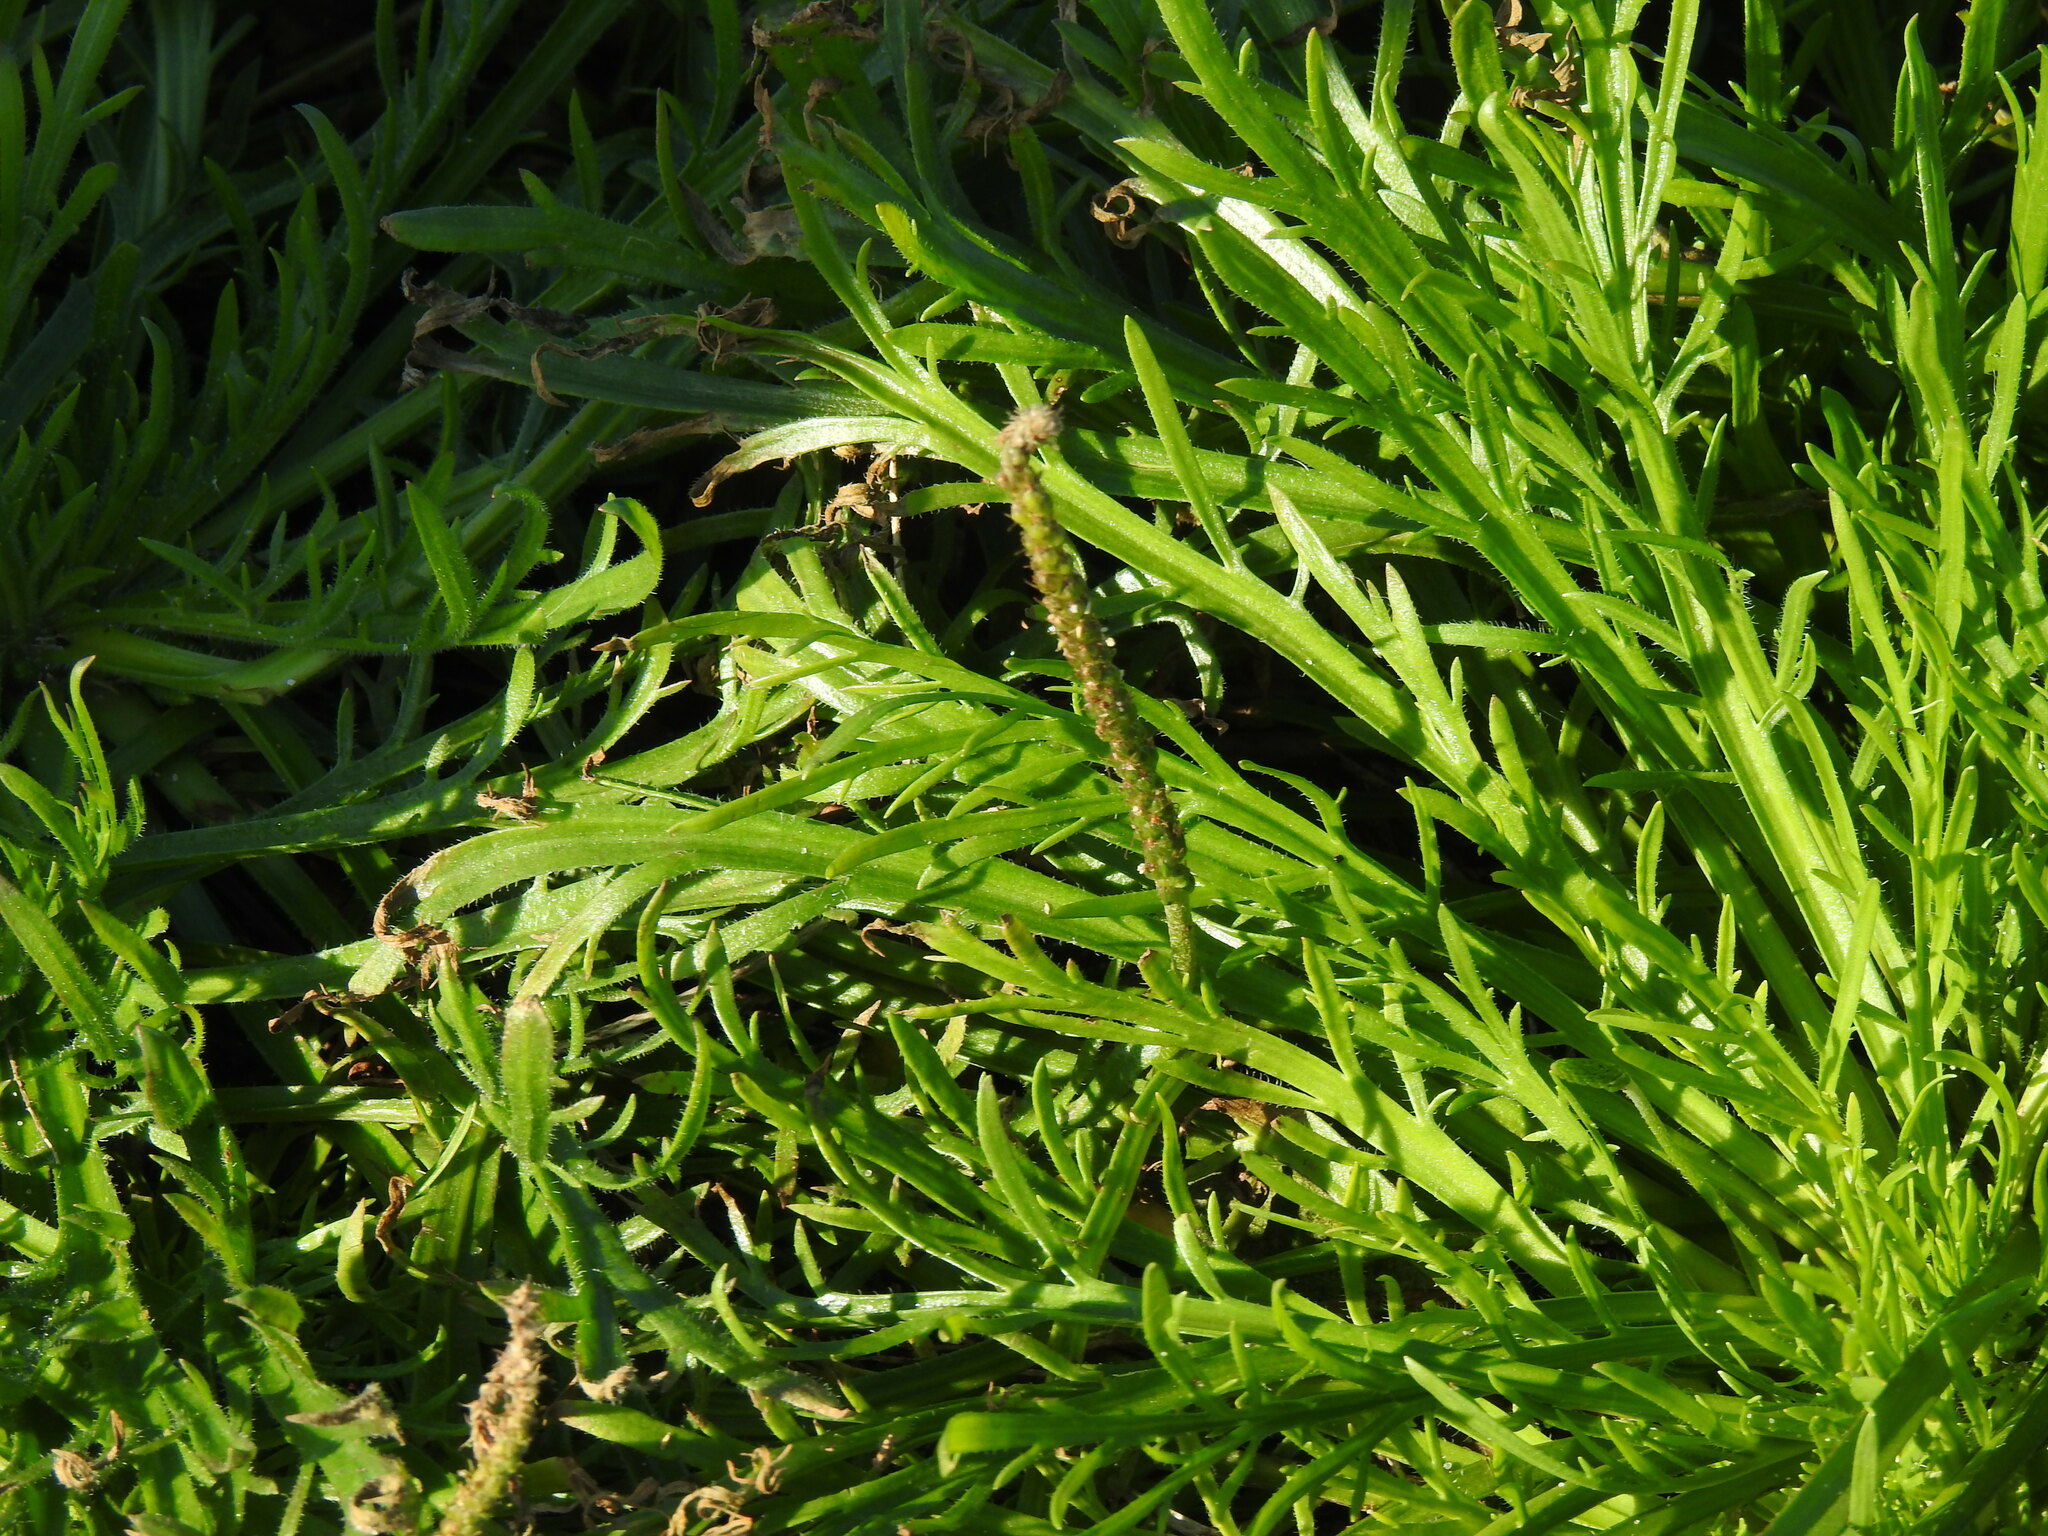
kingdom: Plantae
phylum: Tracheophyta
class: Magnoliopsida
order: Lamiales
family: Plantaginaceae
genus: Plantago
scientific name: Plantago coronopus
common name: Buck's-horn plantain
